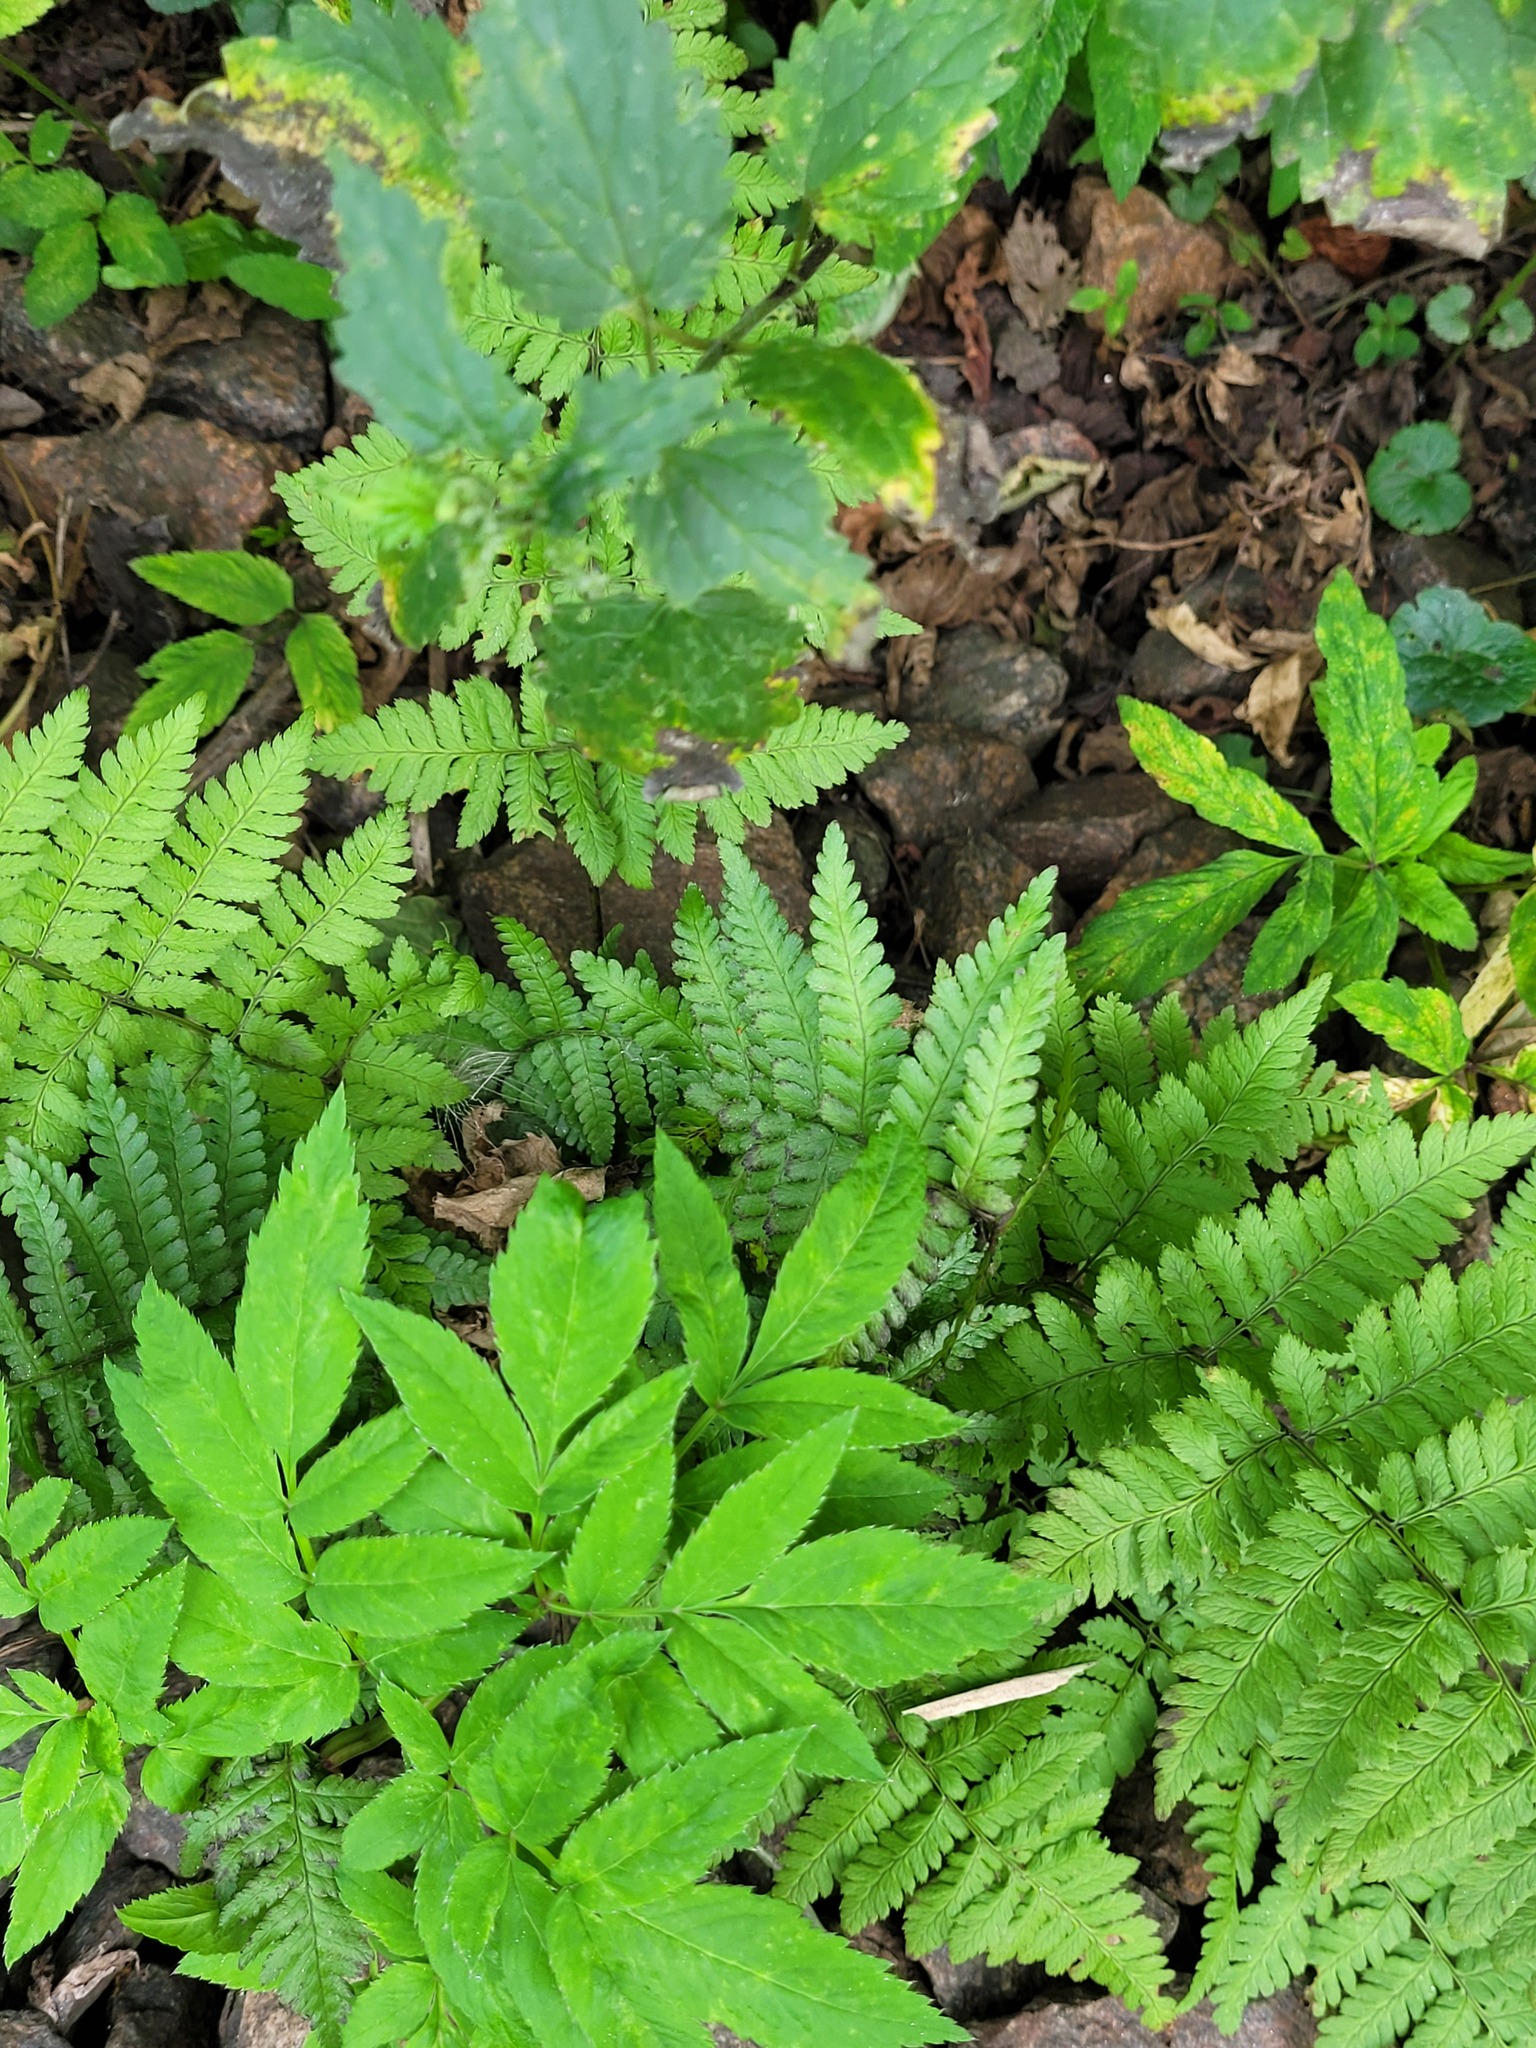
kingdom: Plantae
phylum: Tracheophyta
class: Polypodiopsida
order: Polypodiales
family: Dryopteridaceae
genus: Dryopteris
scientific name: Dryopteris filix-mas
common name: Male fern
